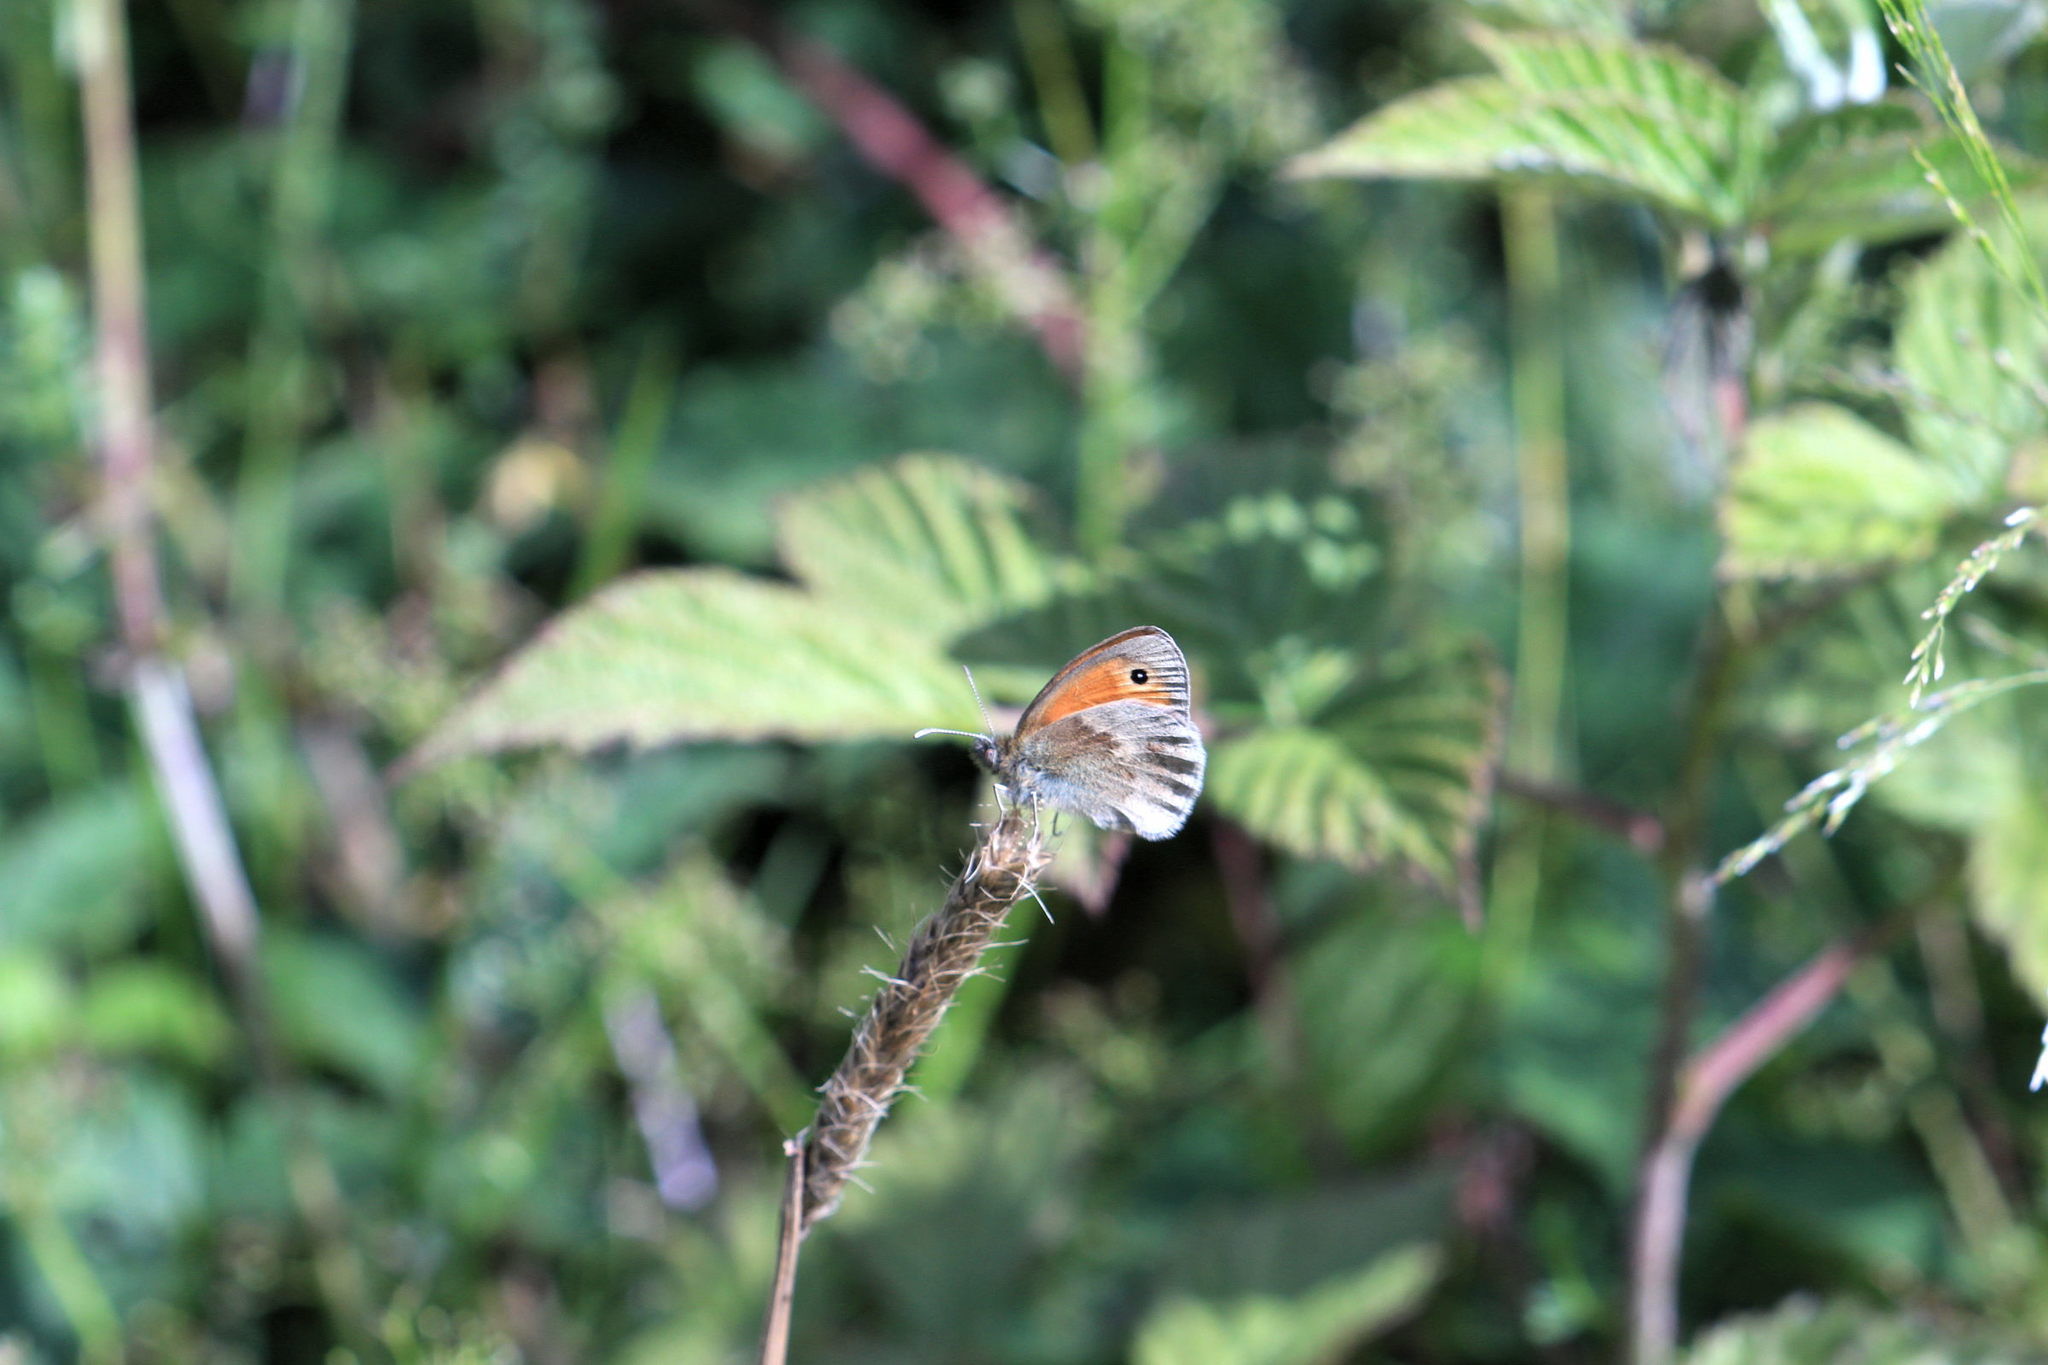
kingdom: Animalia
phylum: Arthropoda
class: Insecta
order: Lepidoptera
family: Nymphalidae
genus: Coenonympha
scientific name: Coenonympha pamphilus
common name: Small heath
